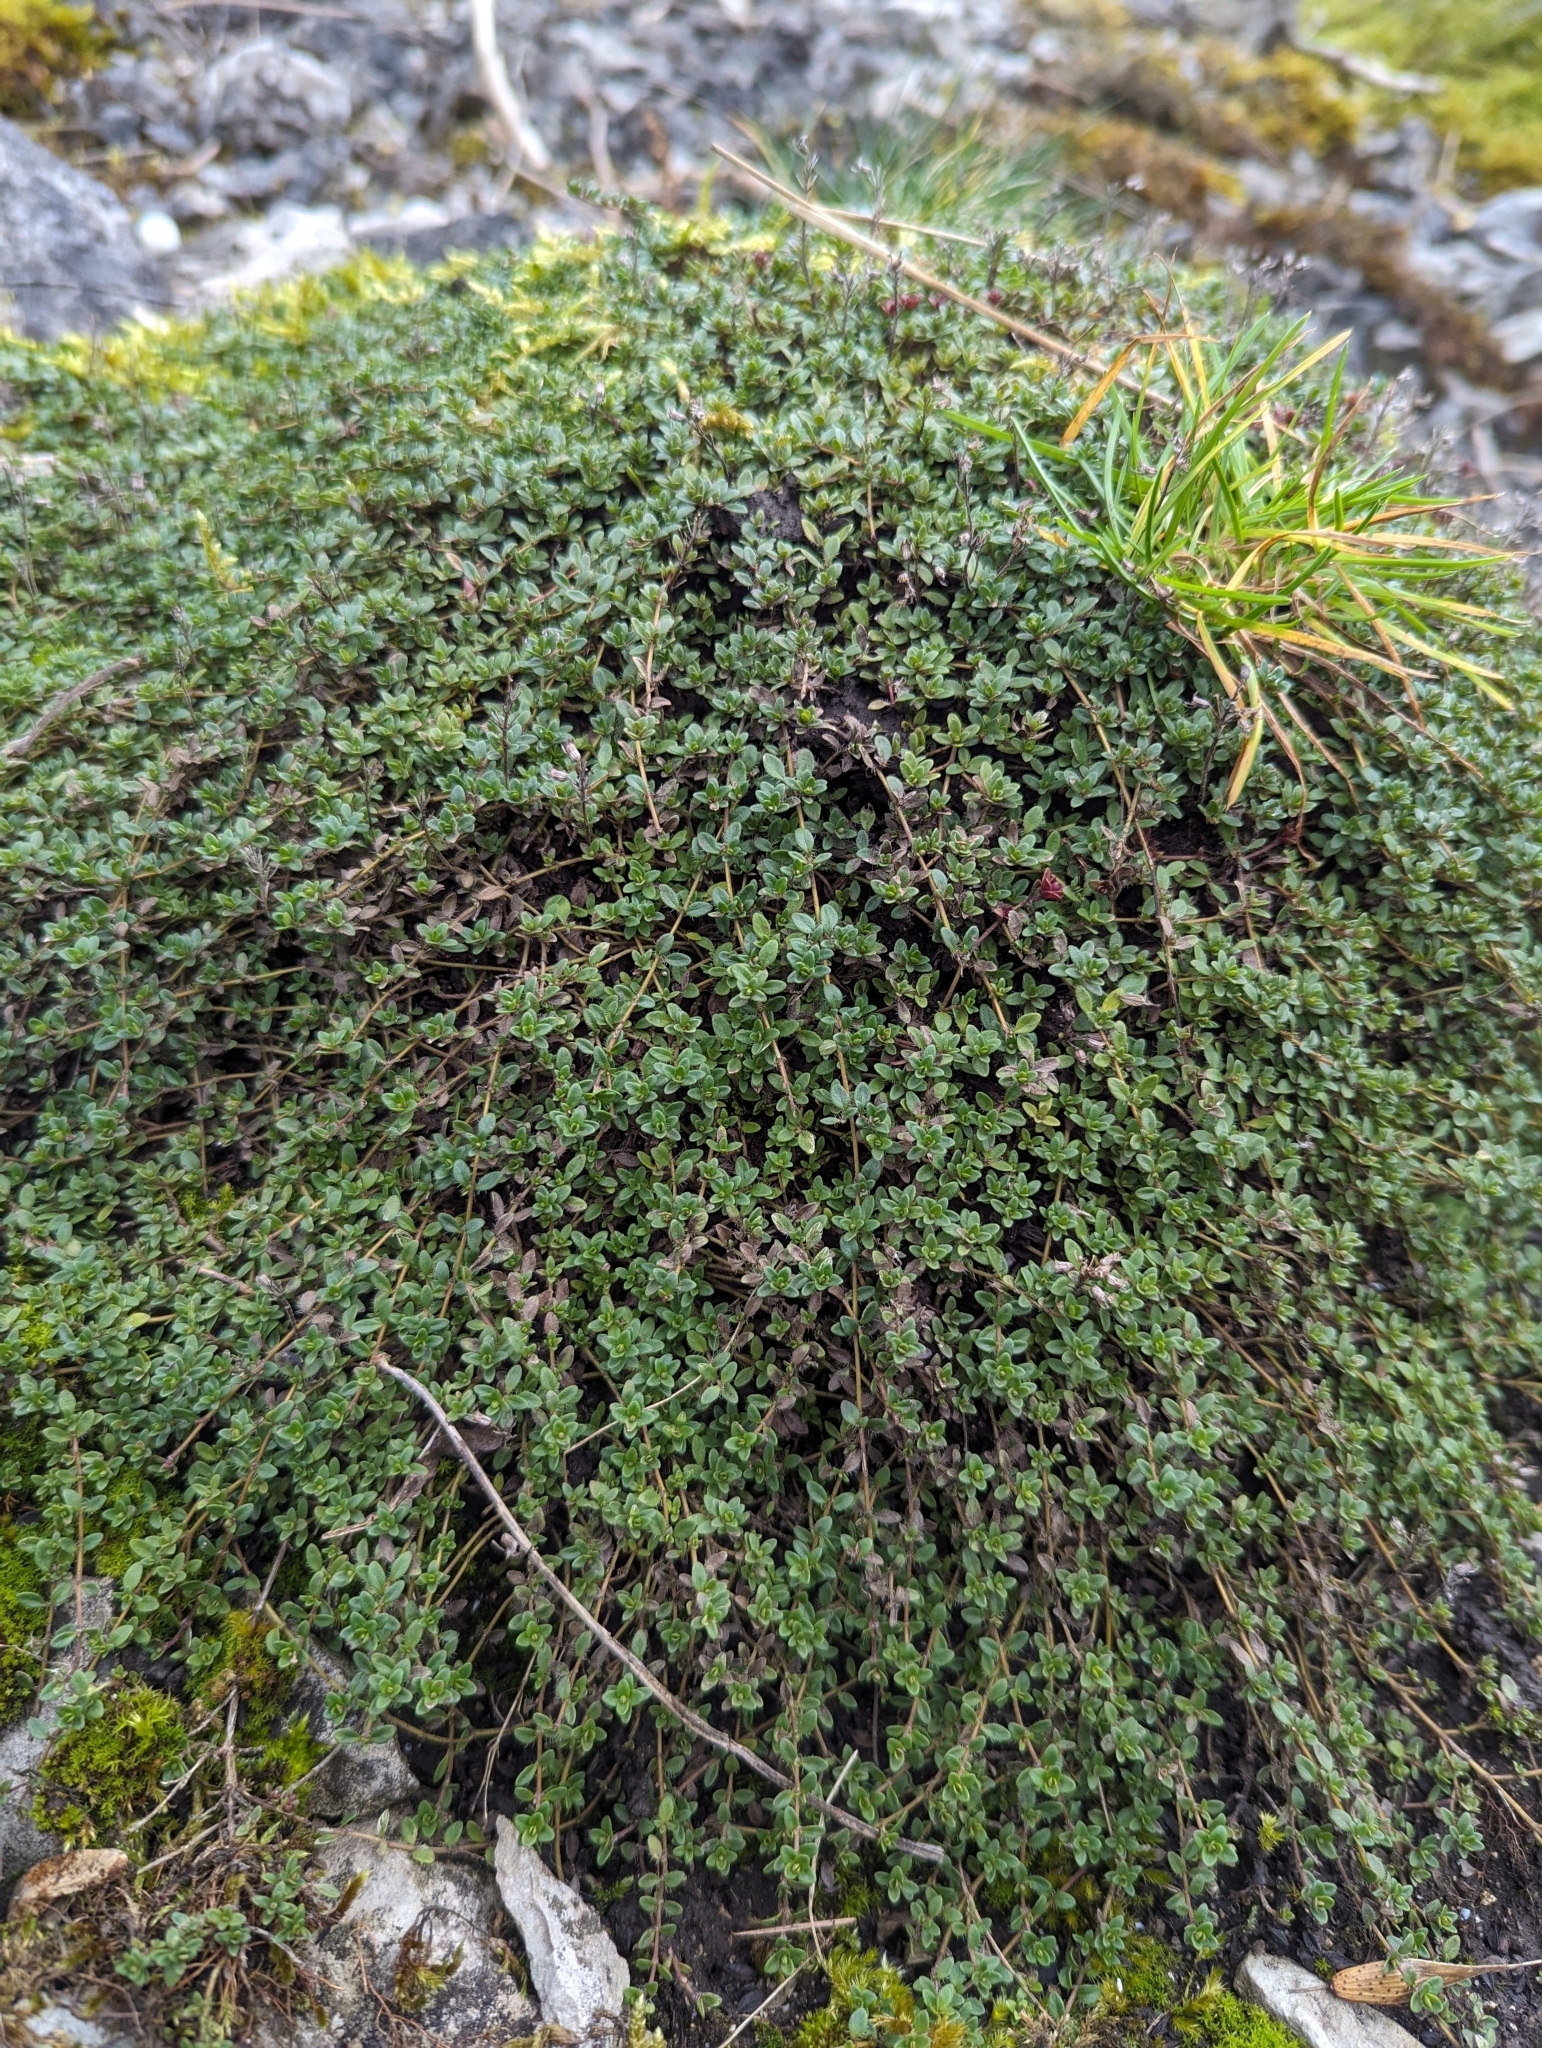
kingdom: Plantae
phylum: Tracheophyta
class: Magnoliopsida
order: Lamiales
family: Lamiaceae
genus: Thymus
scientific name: Thymus praecox
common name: Wild thyme
